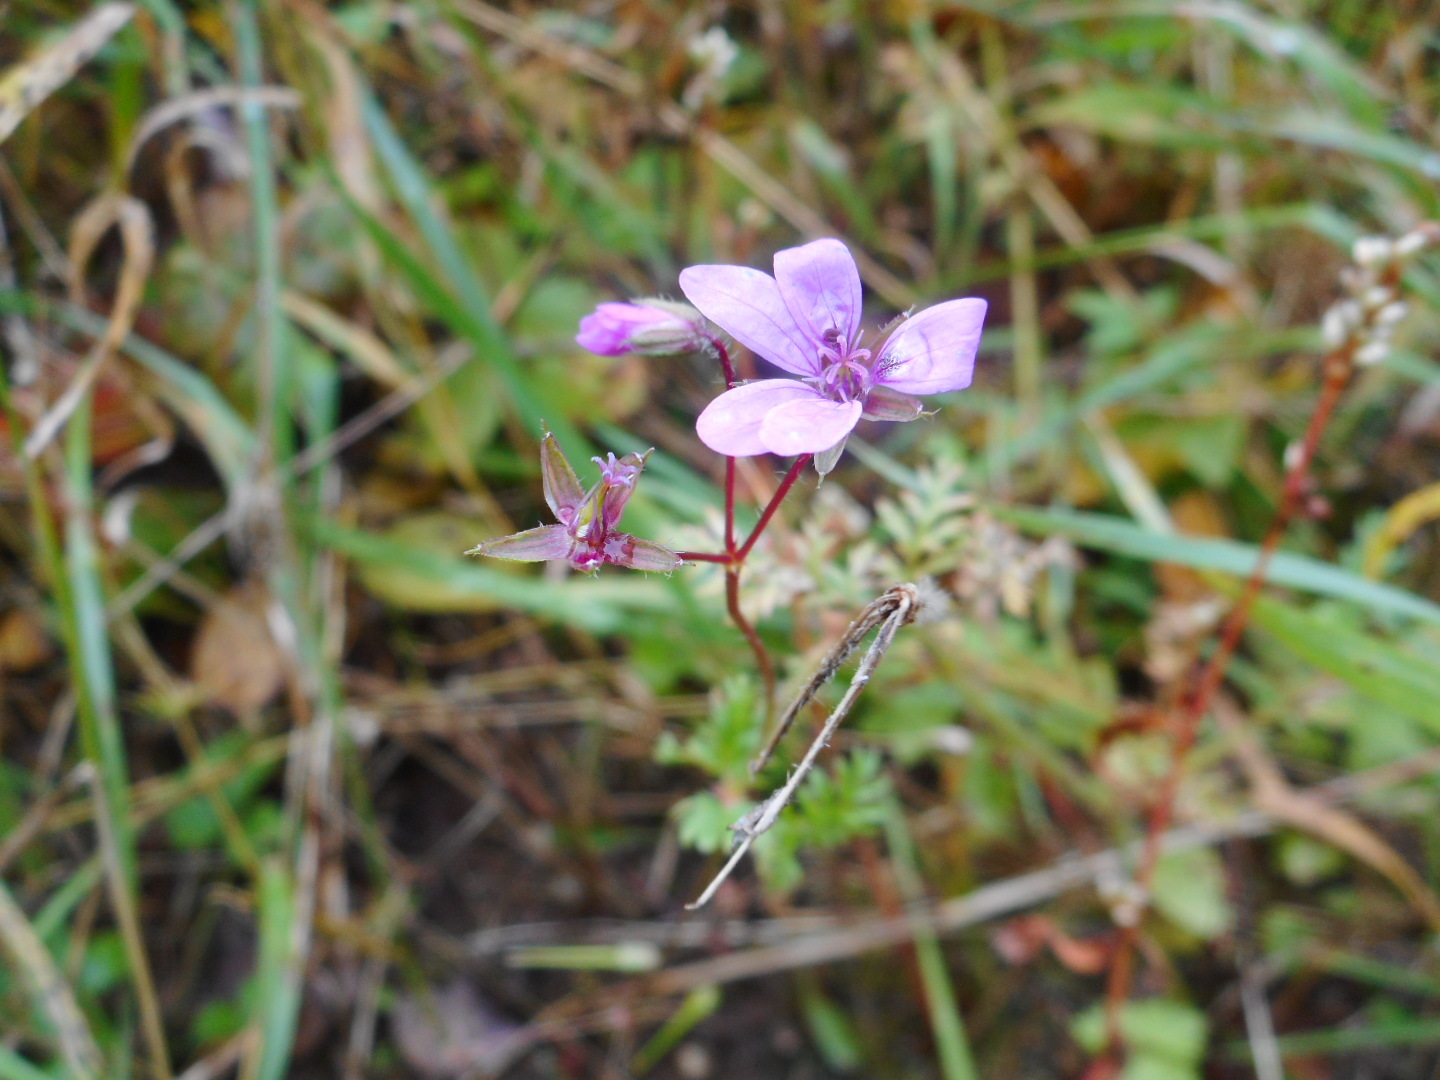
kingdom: Plantae
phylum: Tracheophyta
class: Magnoliopsida
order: Geraniales
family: Geraniaceae
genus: Erodium
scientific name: Erodium cicutarium
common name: Common stork's-bill
